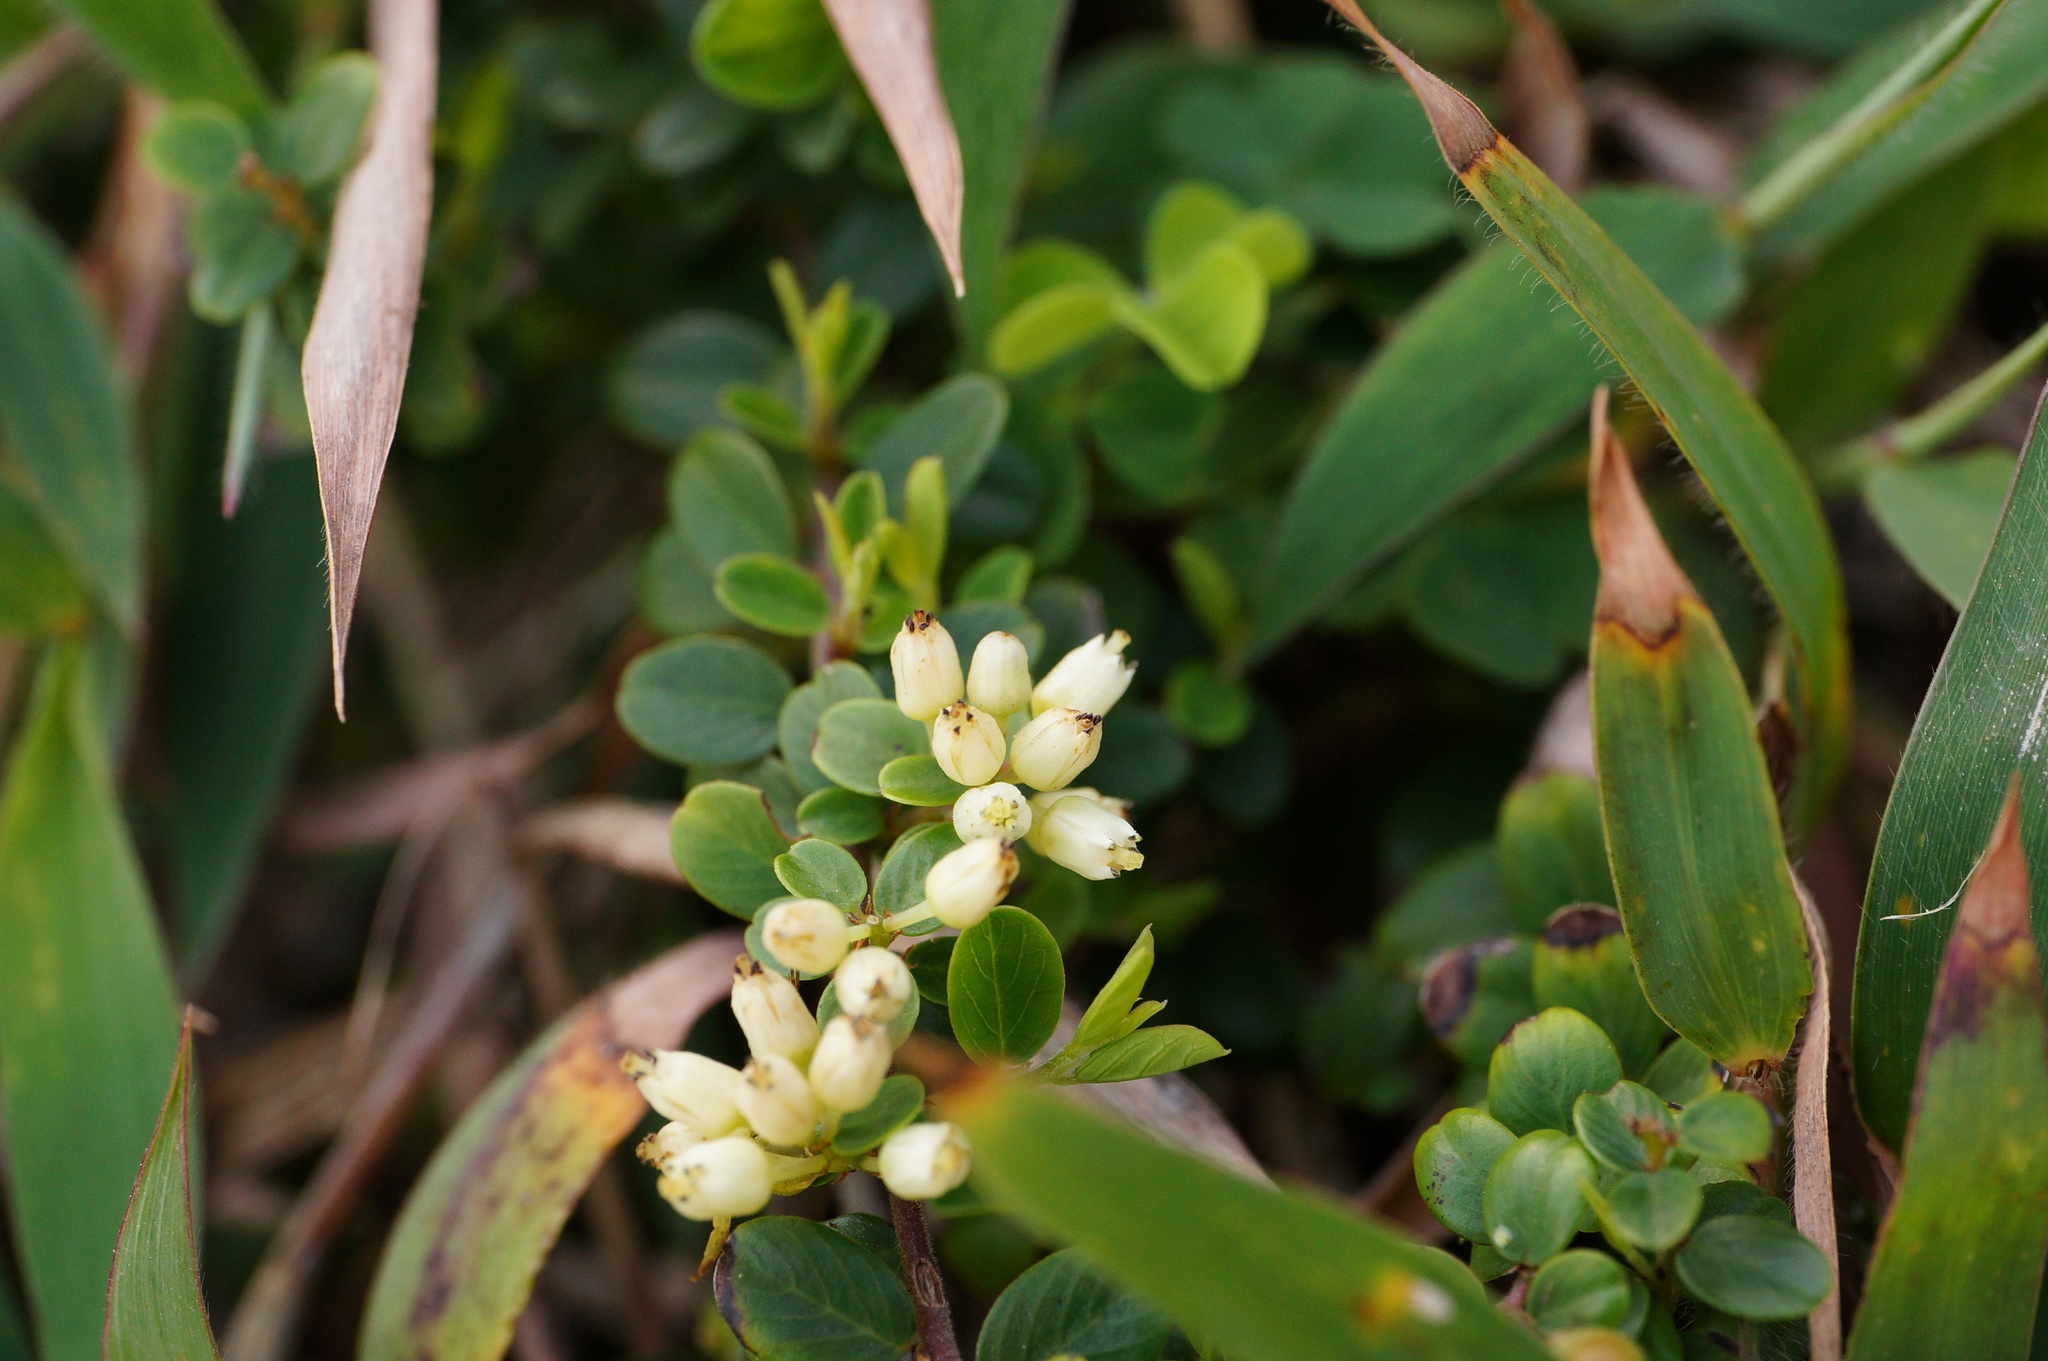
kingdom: Plantae
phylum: Tracheophyta
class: Magnoliopsida
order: Rosales
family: Rhamnaceae
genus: Berchemia
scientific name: Berchemia lineata
